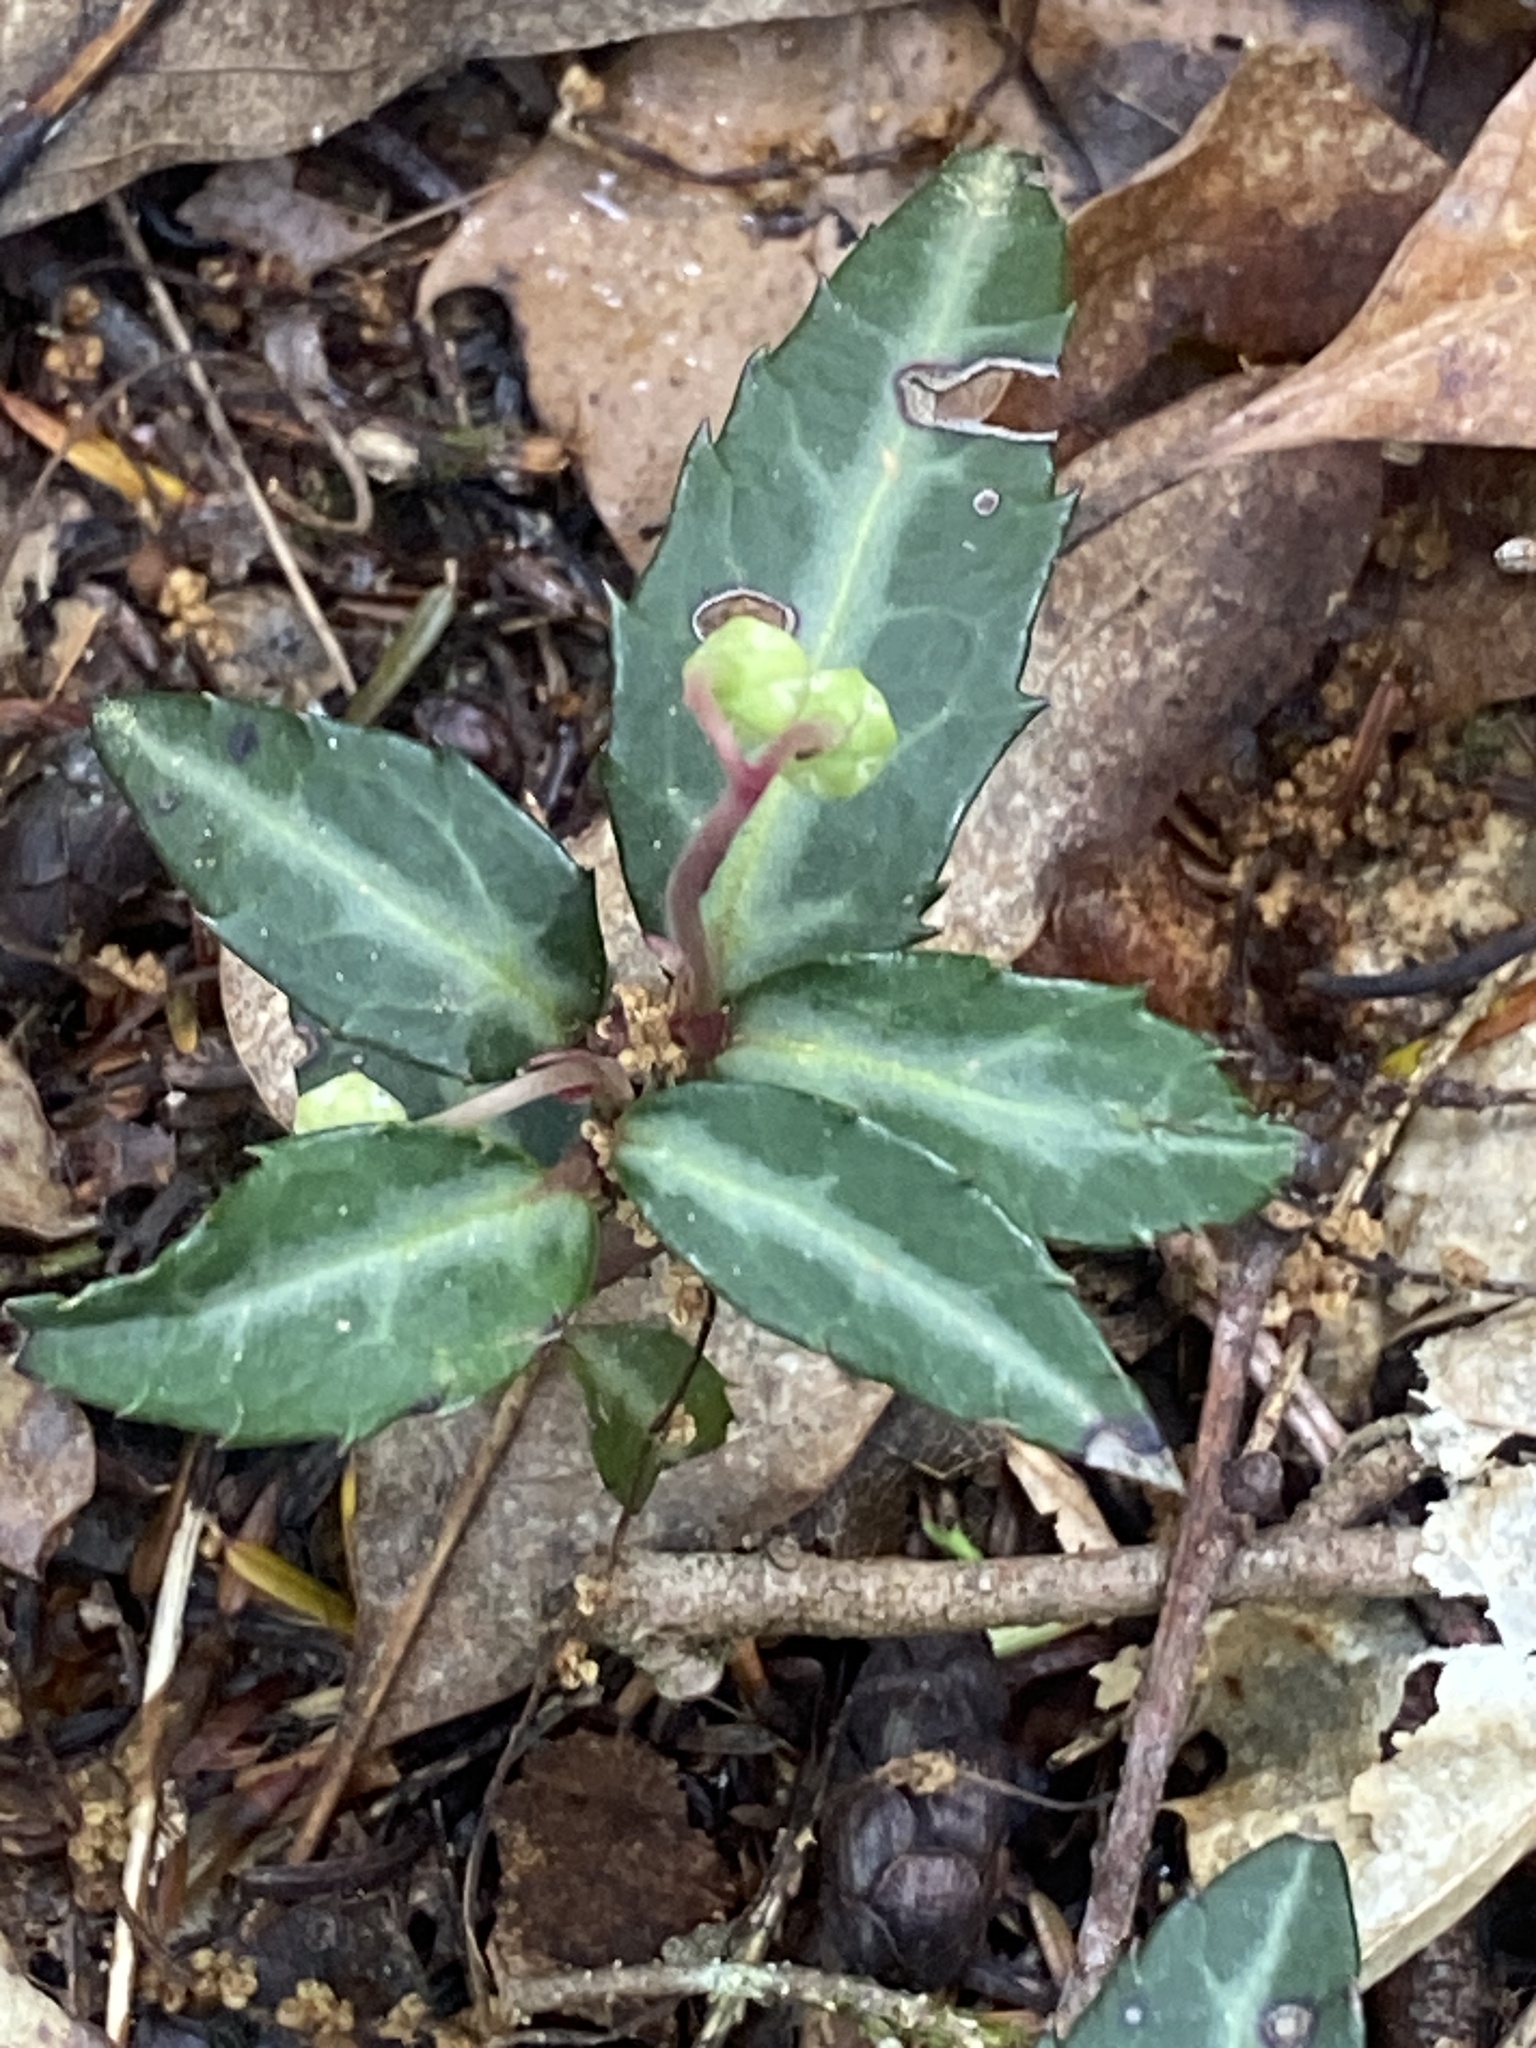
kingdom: Plantae
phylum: Tracheophyta
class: Magnoliopsida
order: Ericales
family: Ericaceae
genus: Chimaphila
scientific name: Chimaphila maculata
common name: Spotted pipsissewa
